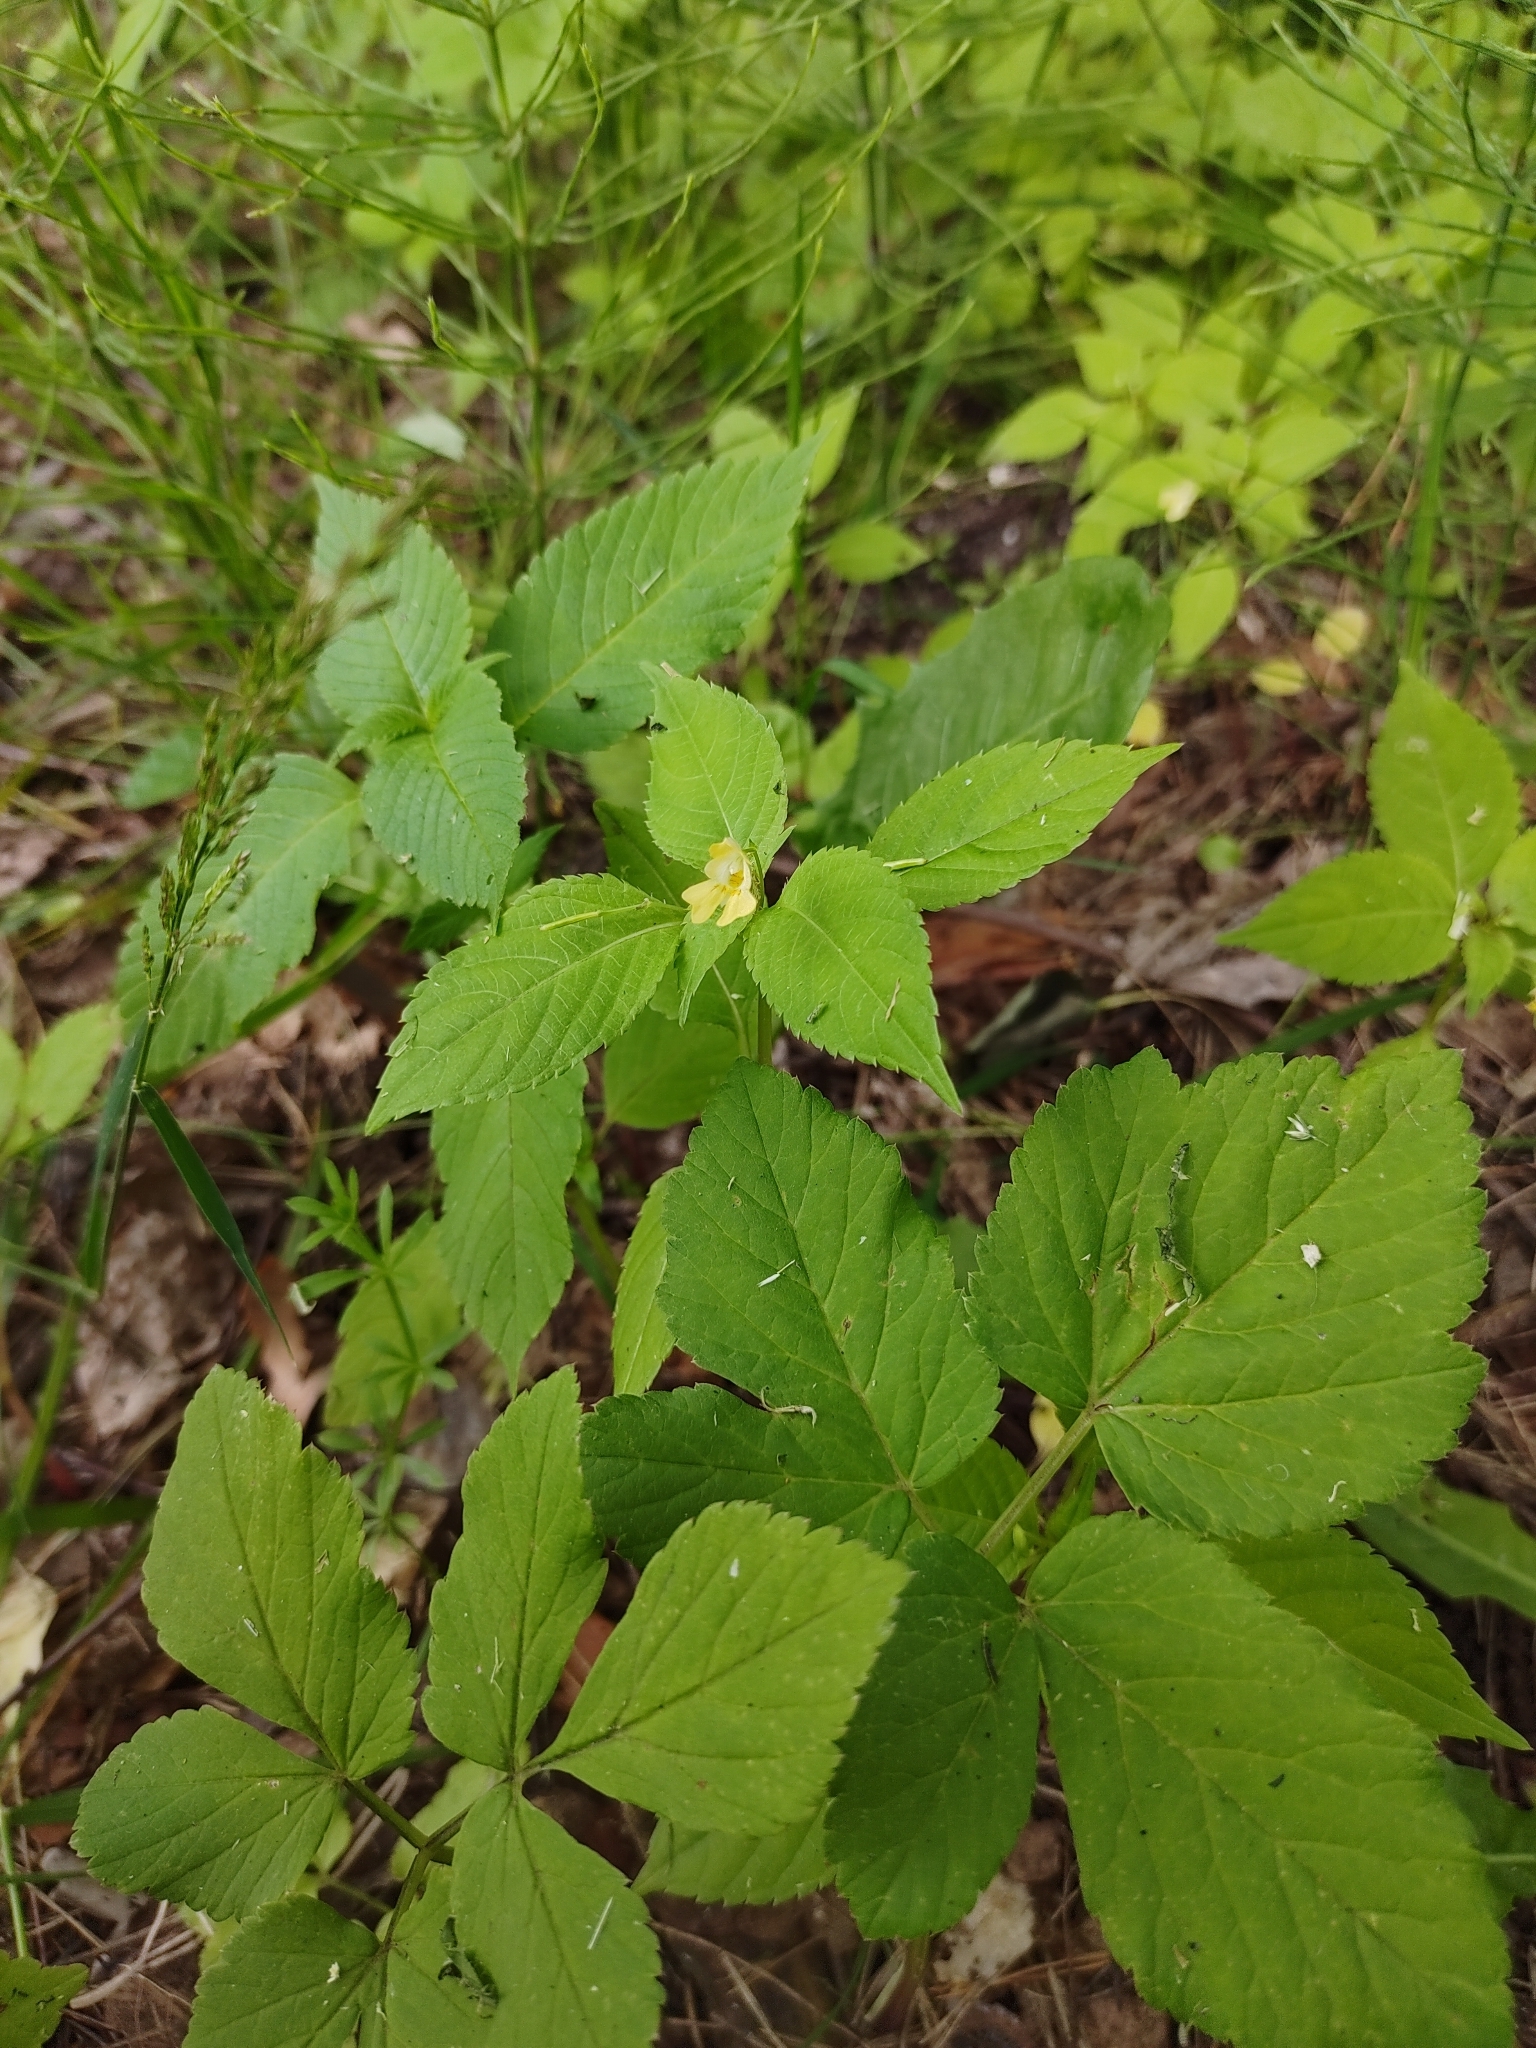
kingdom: Plantae
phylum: Tracheophyta
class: Magnoliopsida
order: Ericales
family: Balsaminaceae
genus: Impatiens
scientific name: Impatiens parviflora
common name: Small balsam
